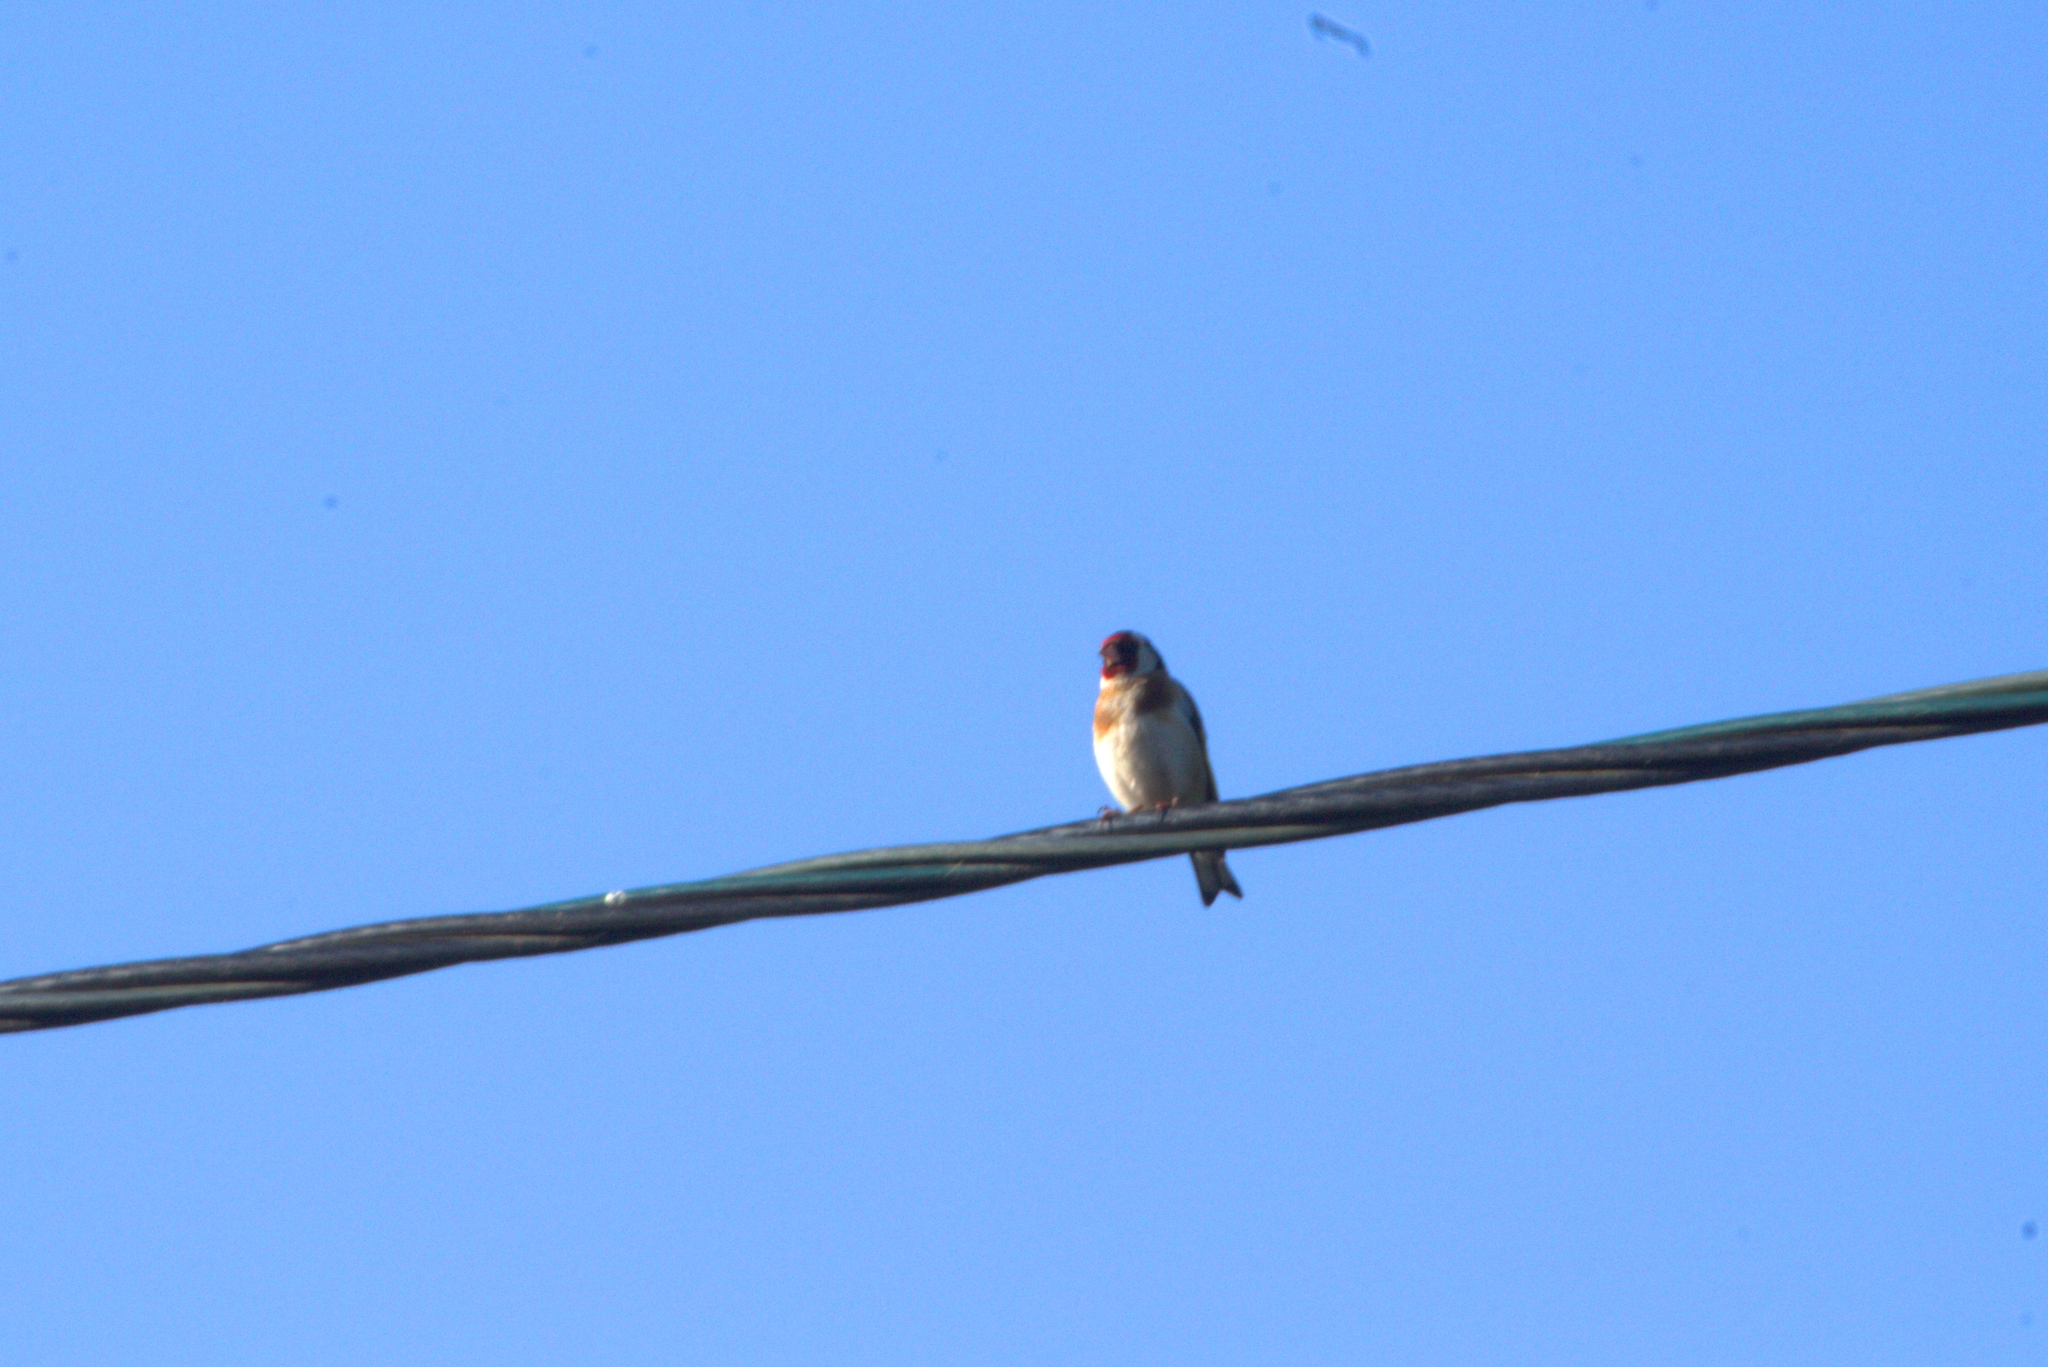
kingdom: Animalia
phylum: Chordata
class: Aves
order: Passeriformes
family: Fringillidae
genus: Carduelis
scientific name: Carduelis carduelis
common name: European goldfinch
